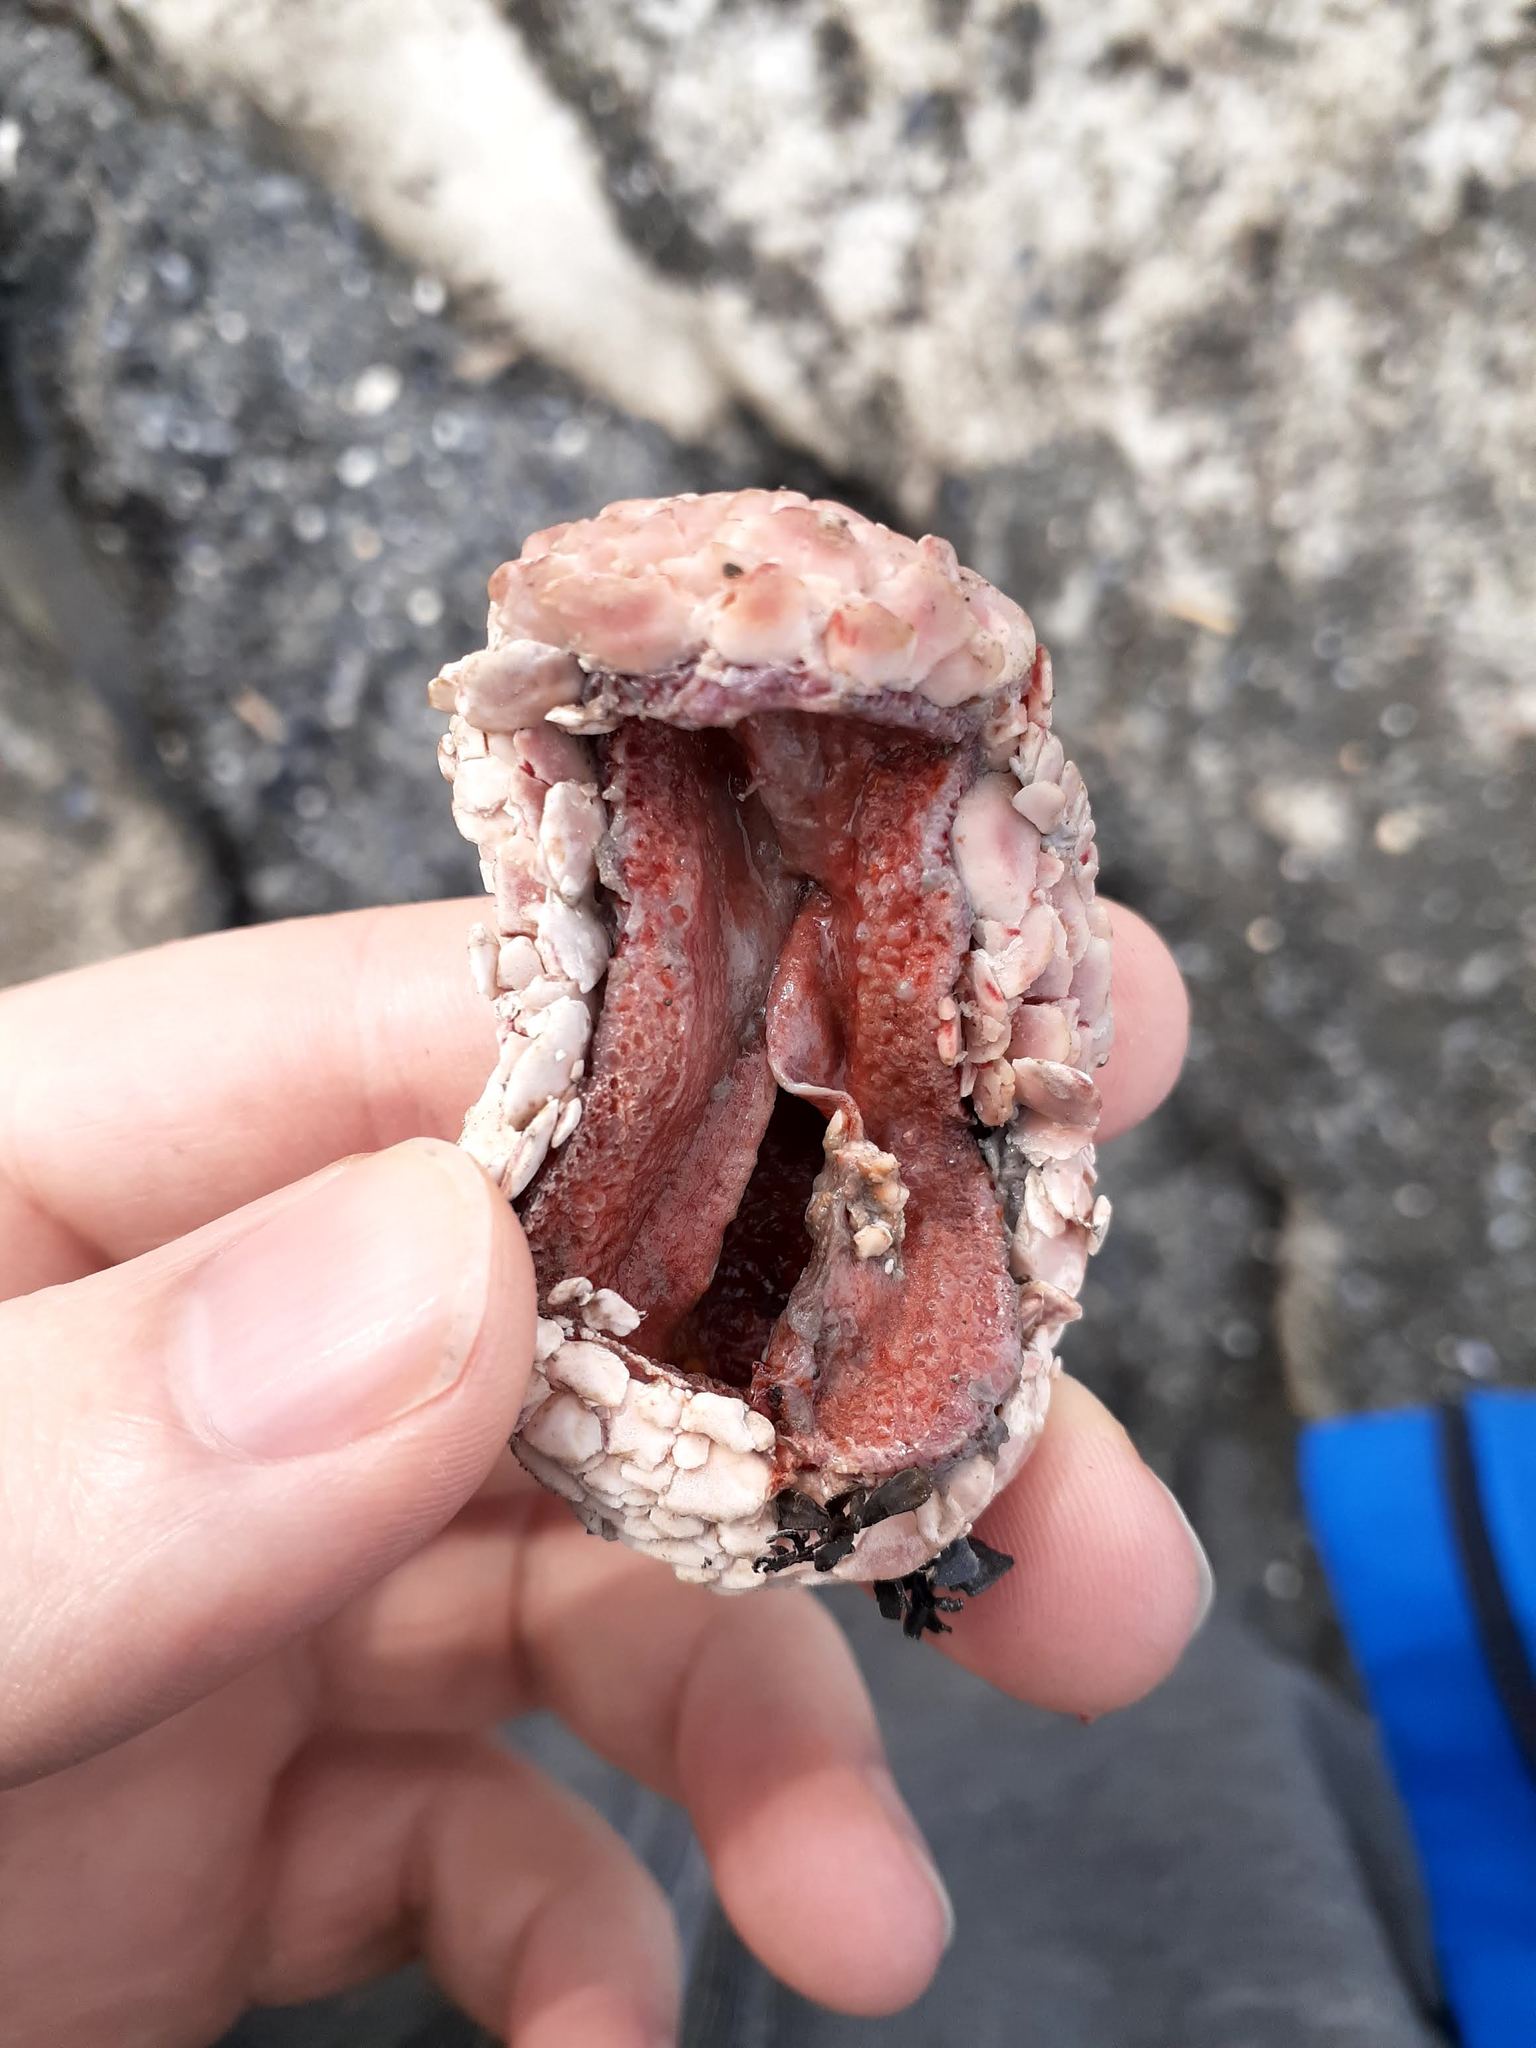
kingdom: Animalia
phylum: Echinodermata
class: Holothuroidea
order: Dendrochirotida
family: Psolidae
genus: Psolus
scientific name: Psolus fabricii
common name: Scarlet psolus
